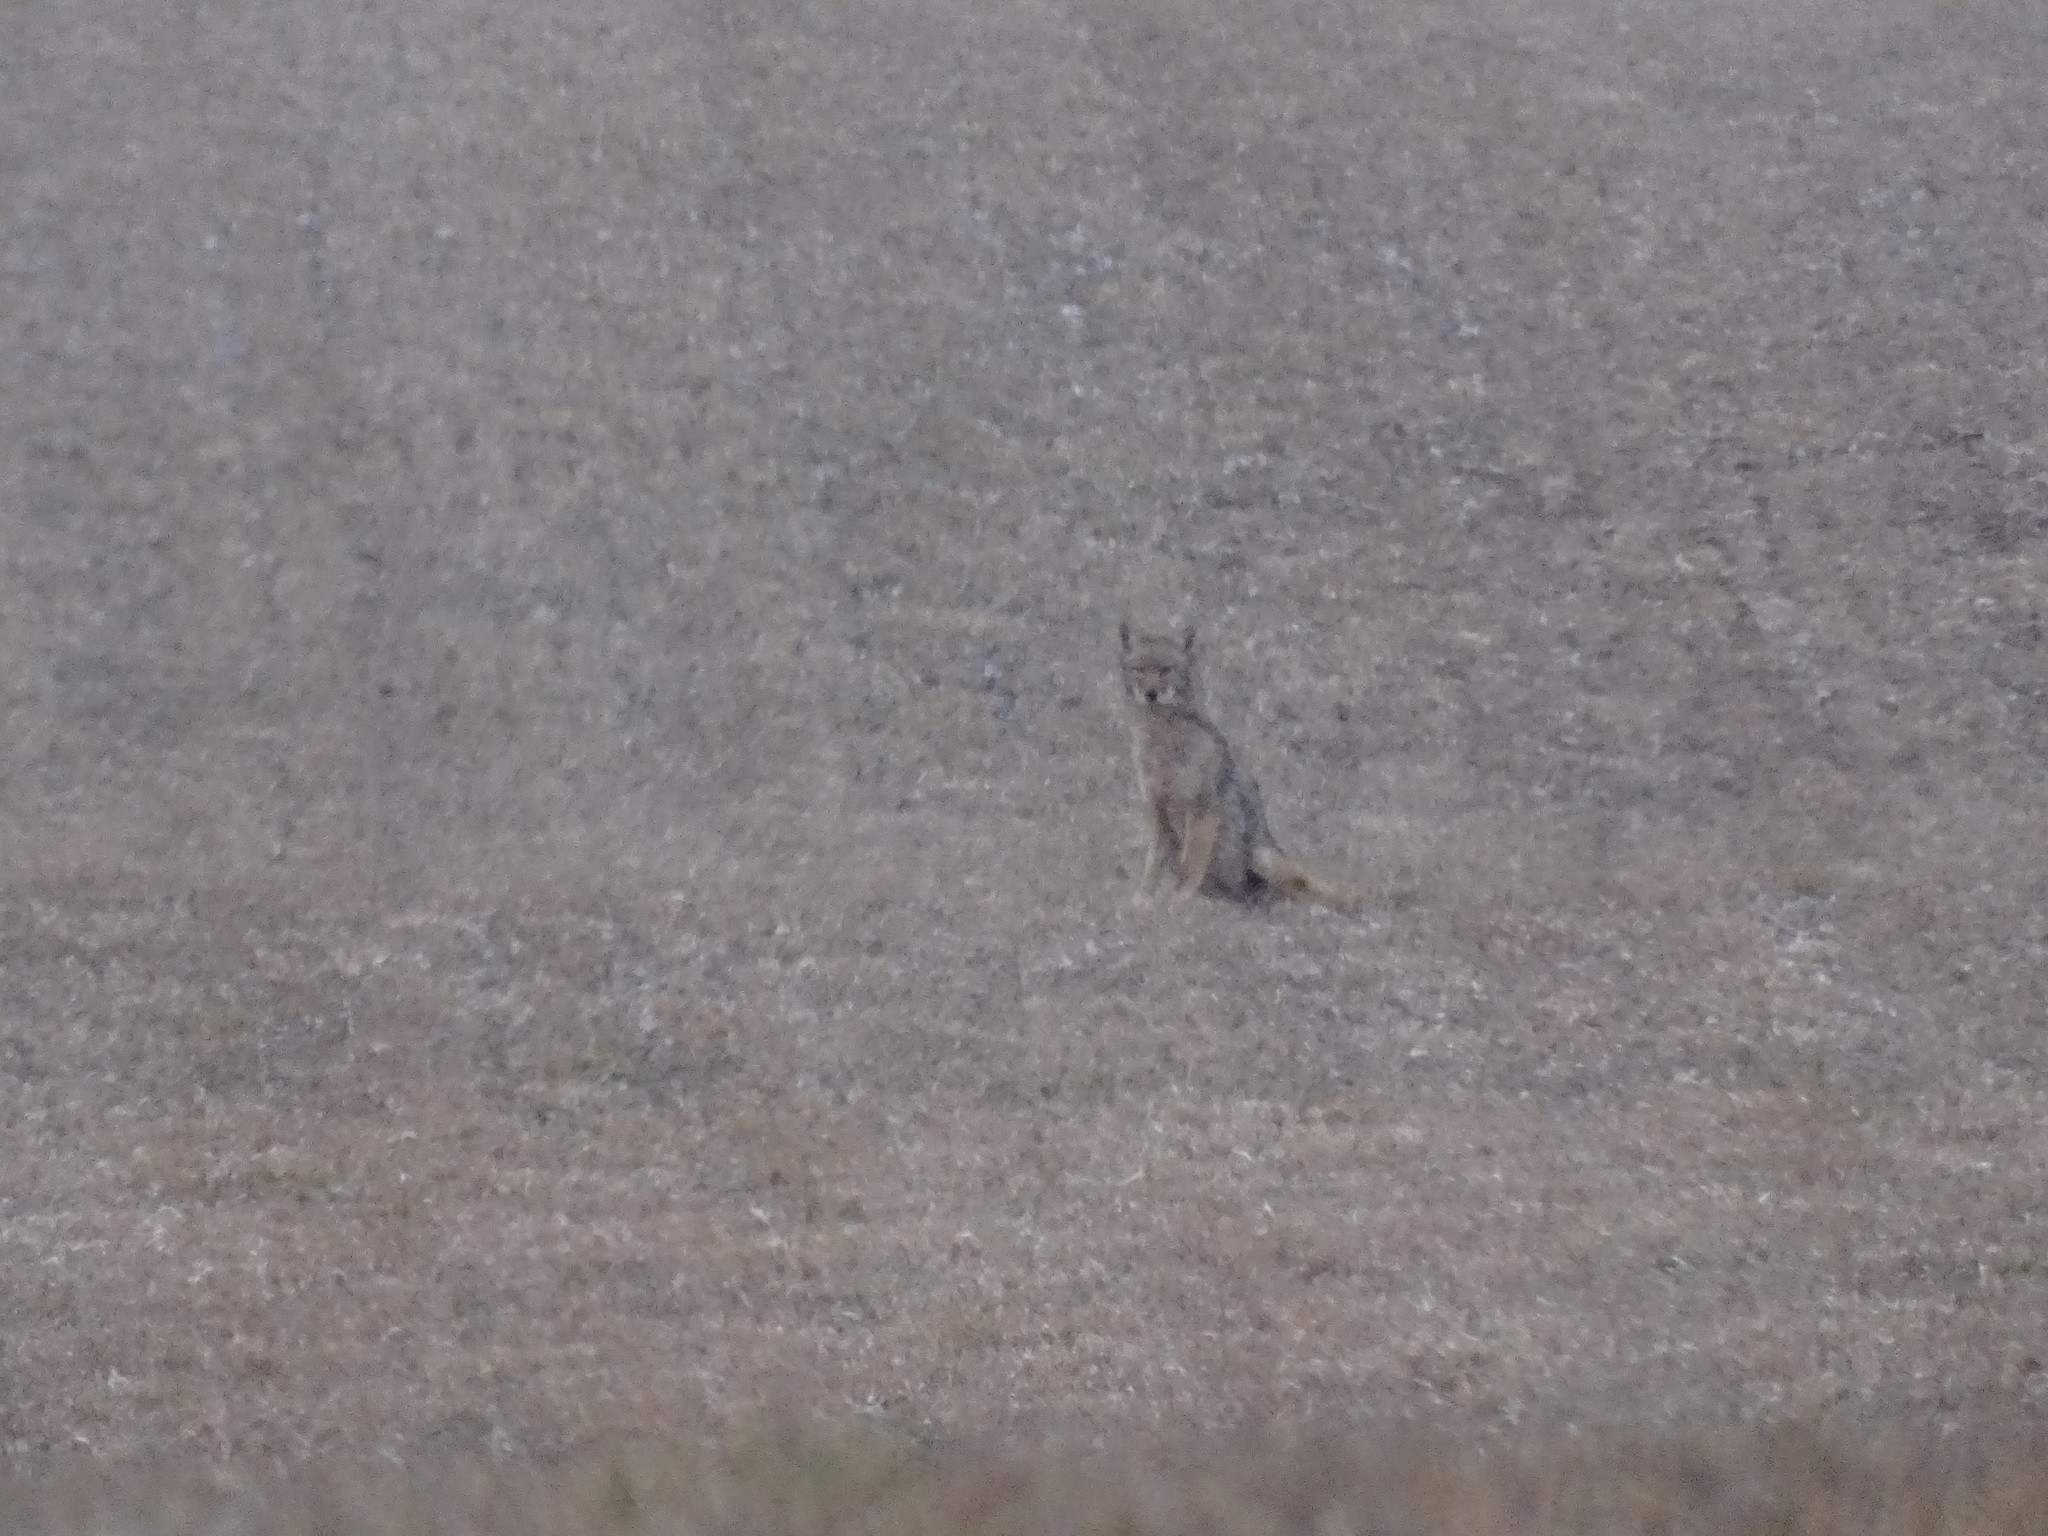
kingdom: Animalia
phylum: Chordata
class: Mammalia
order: Carnivora
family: Canidae
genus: Canis
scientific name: Canis latrans
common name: Coyote
